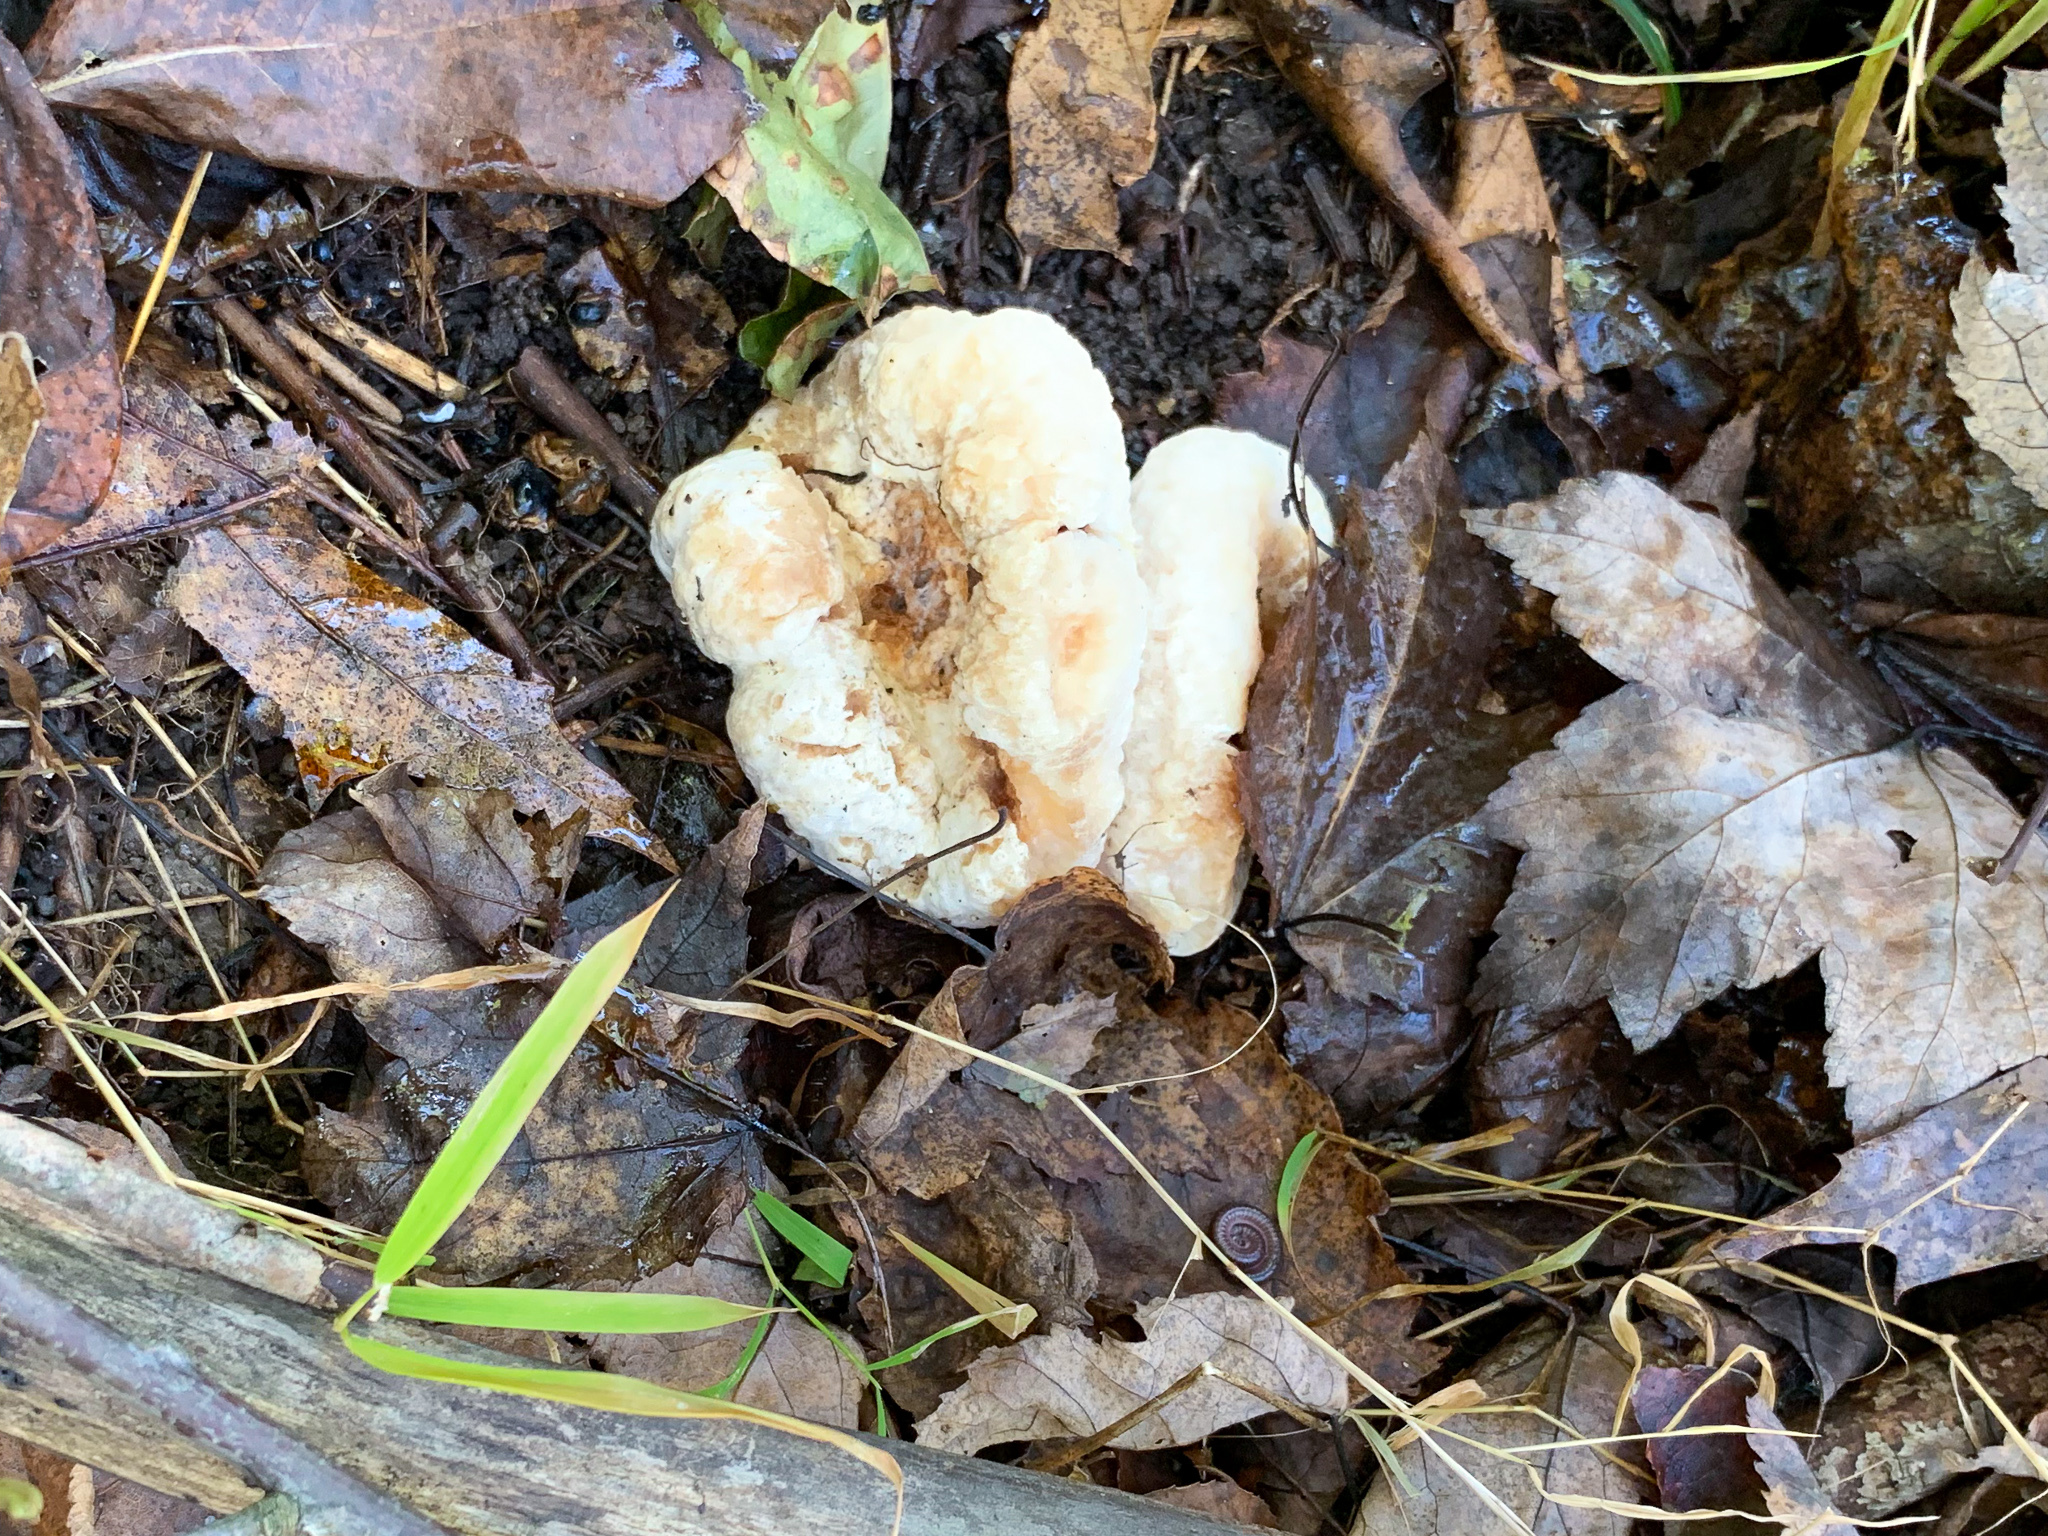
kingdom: Fungi
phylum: Basidiomycota
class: Agaricomycetes
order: Agaricales
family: Entolomataceae
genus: Entoloma
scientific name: Entoloma abortivum
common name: Aborted entoloma
